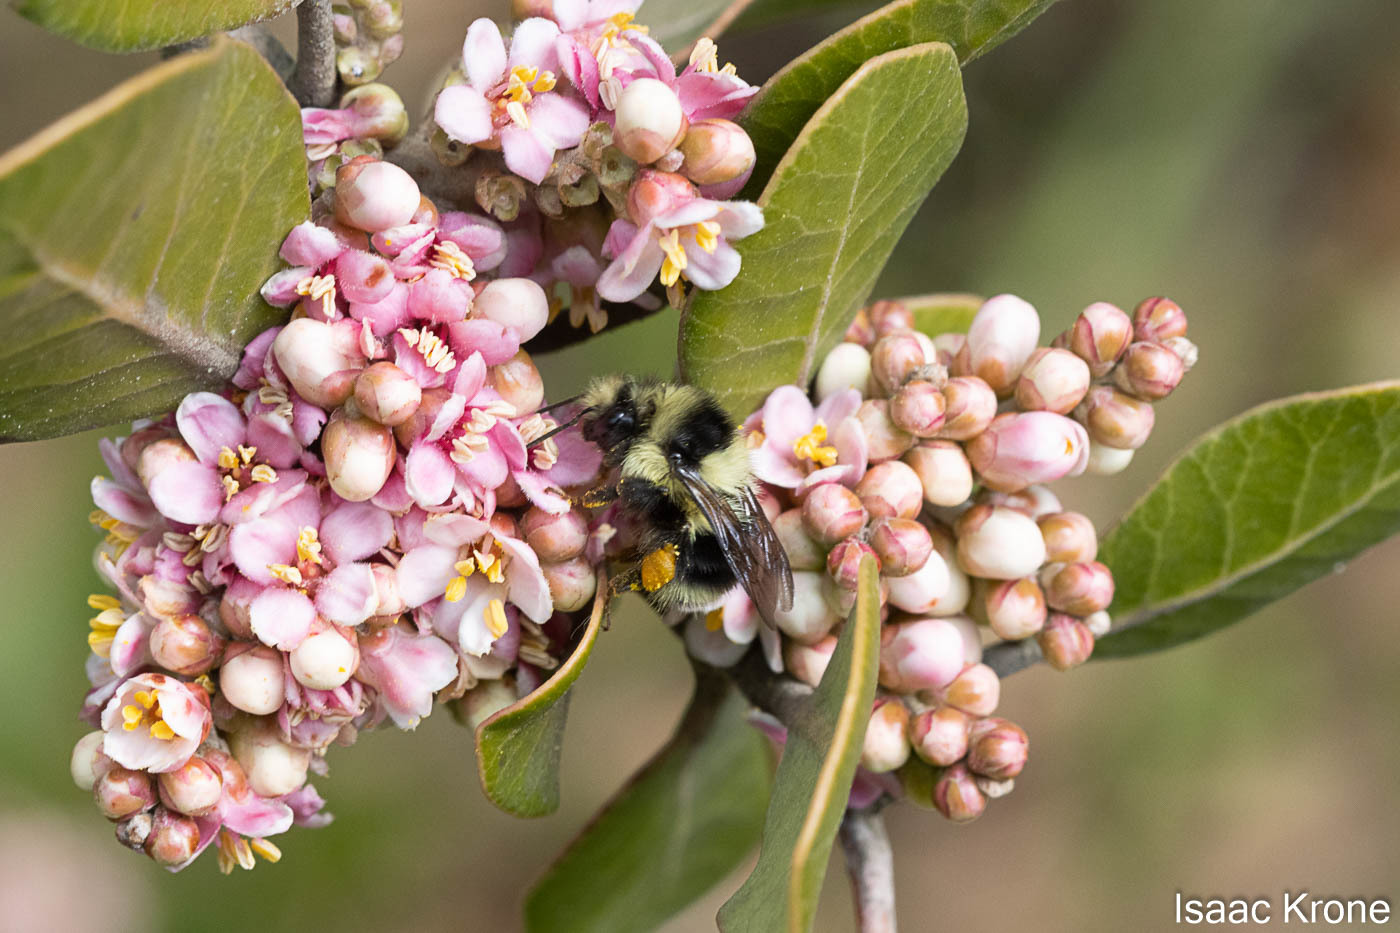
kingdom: Animalia
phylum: Arthropoda
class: Insecta
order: Hymenoptera
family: Apidae
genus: Bombus
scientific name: Bombus melanopygus
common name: Black tail bumble bee
